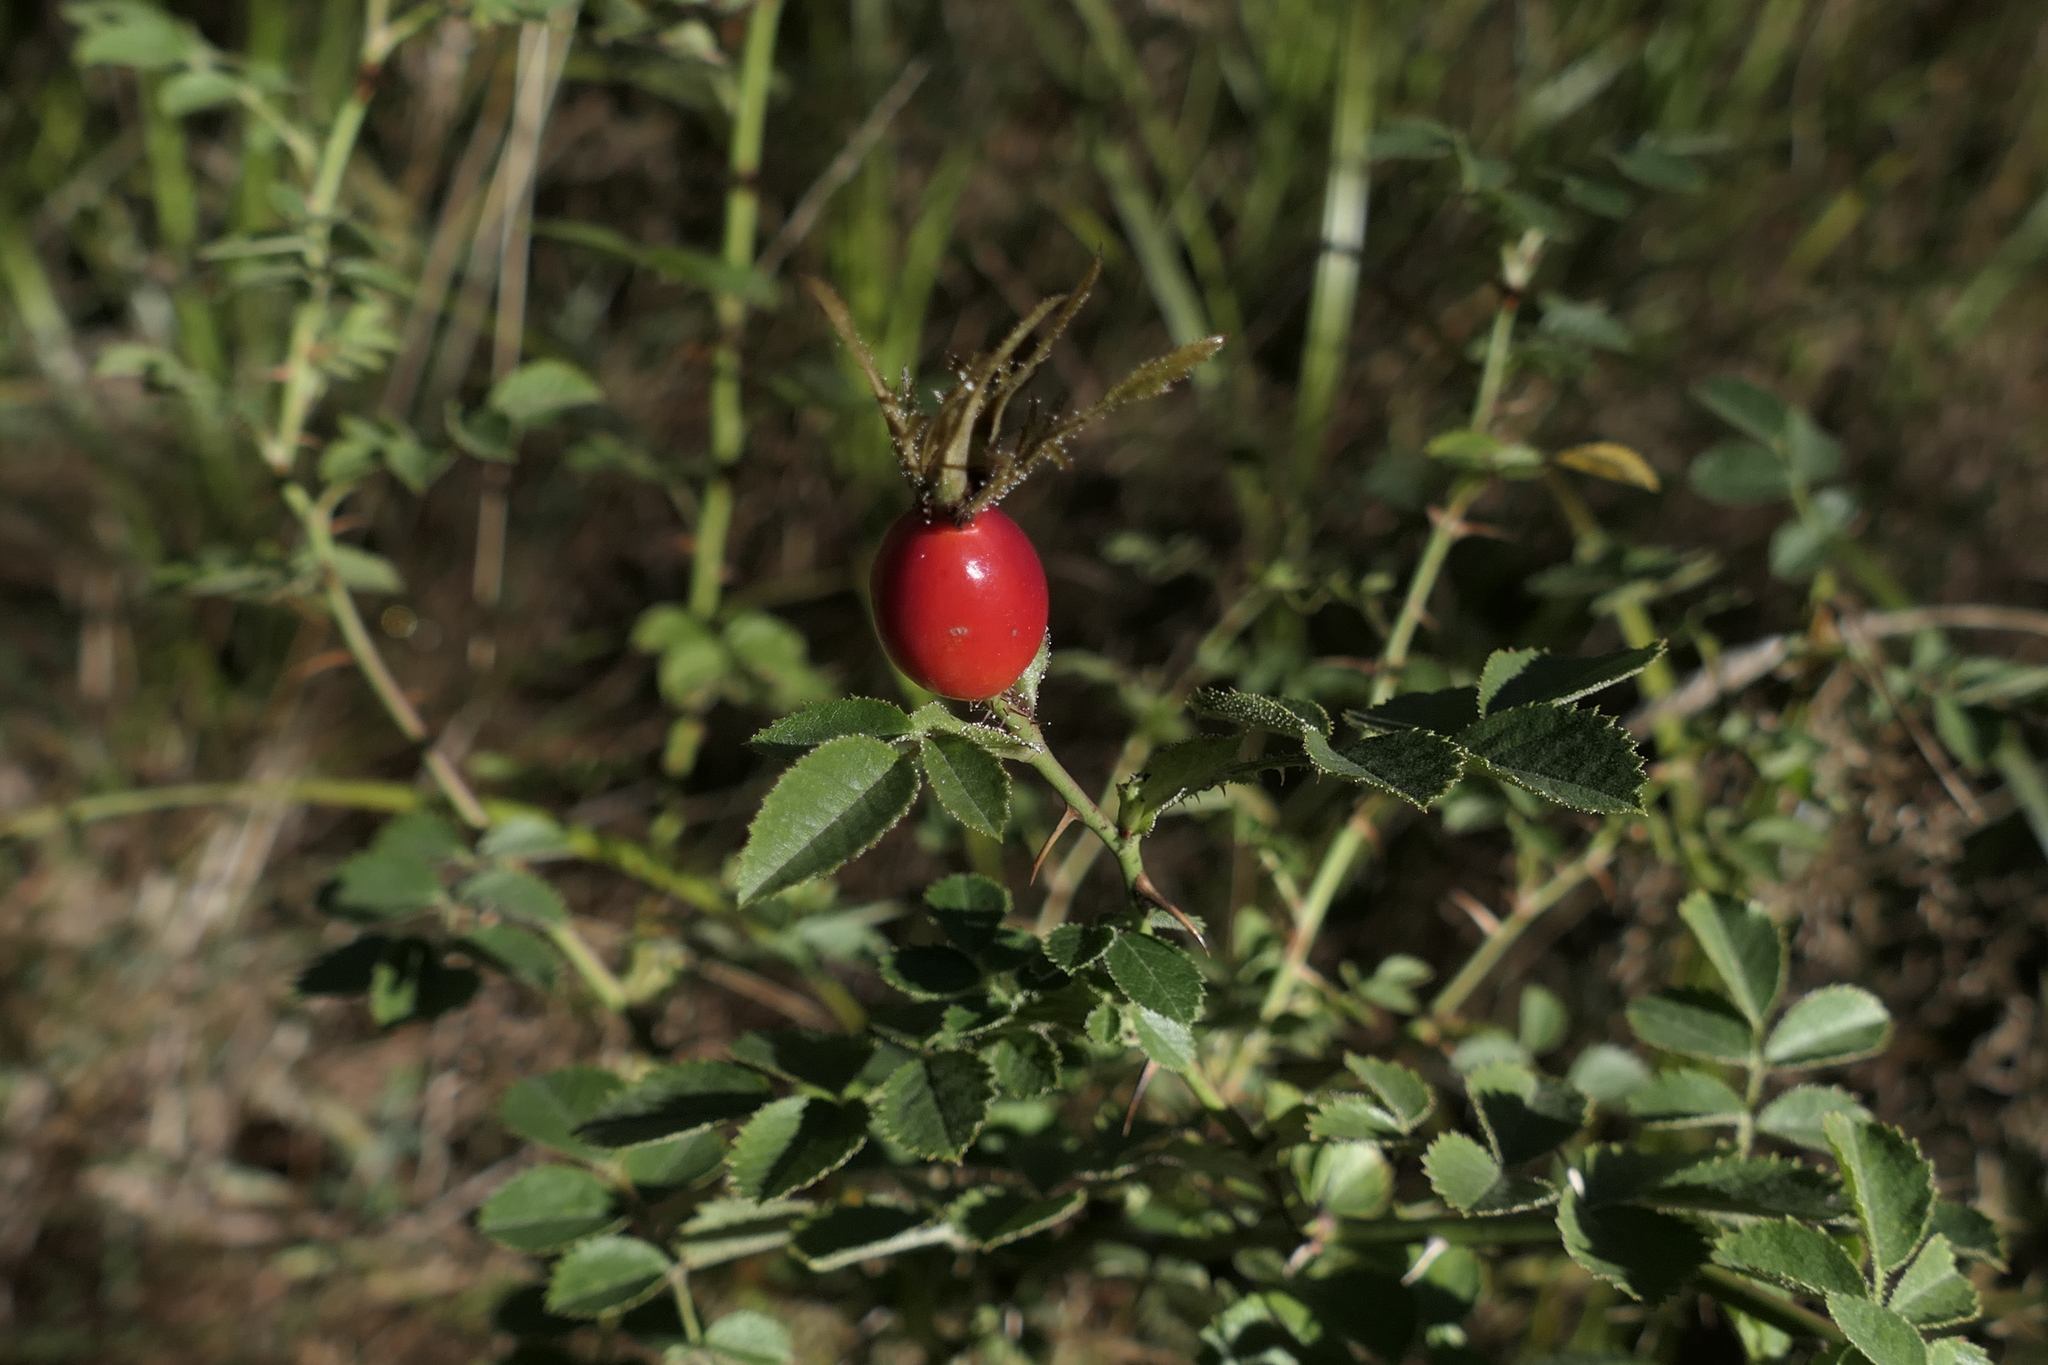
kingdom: Plantae
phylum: Tracheophyta
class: Magnoliopsida
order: Rosales
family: Rosaceae
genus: Rosa
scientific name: Rosa rubiginosa
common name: Sweet-briar
